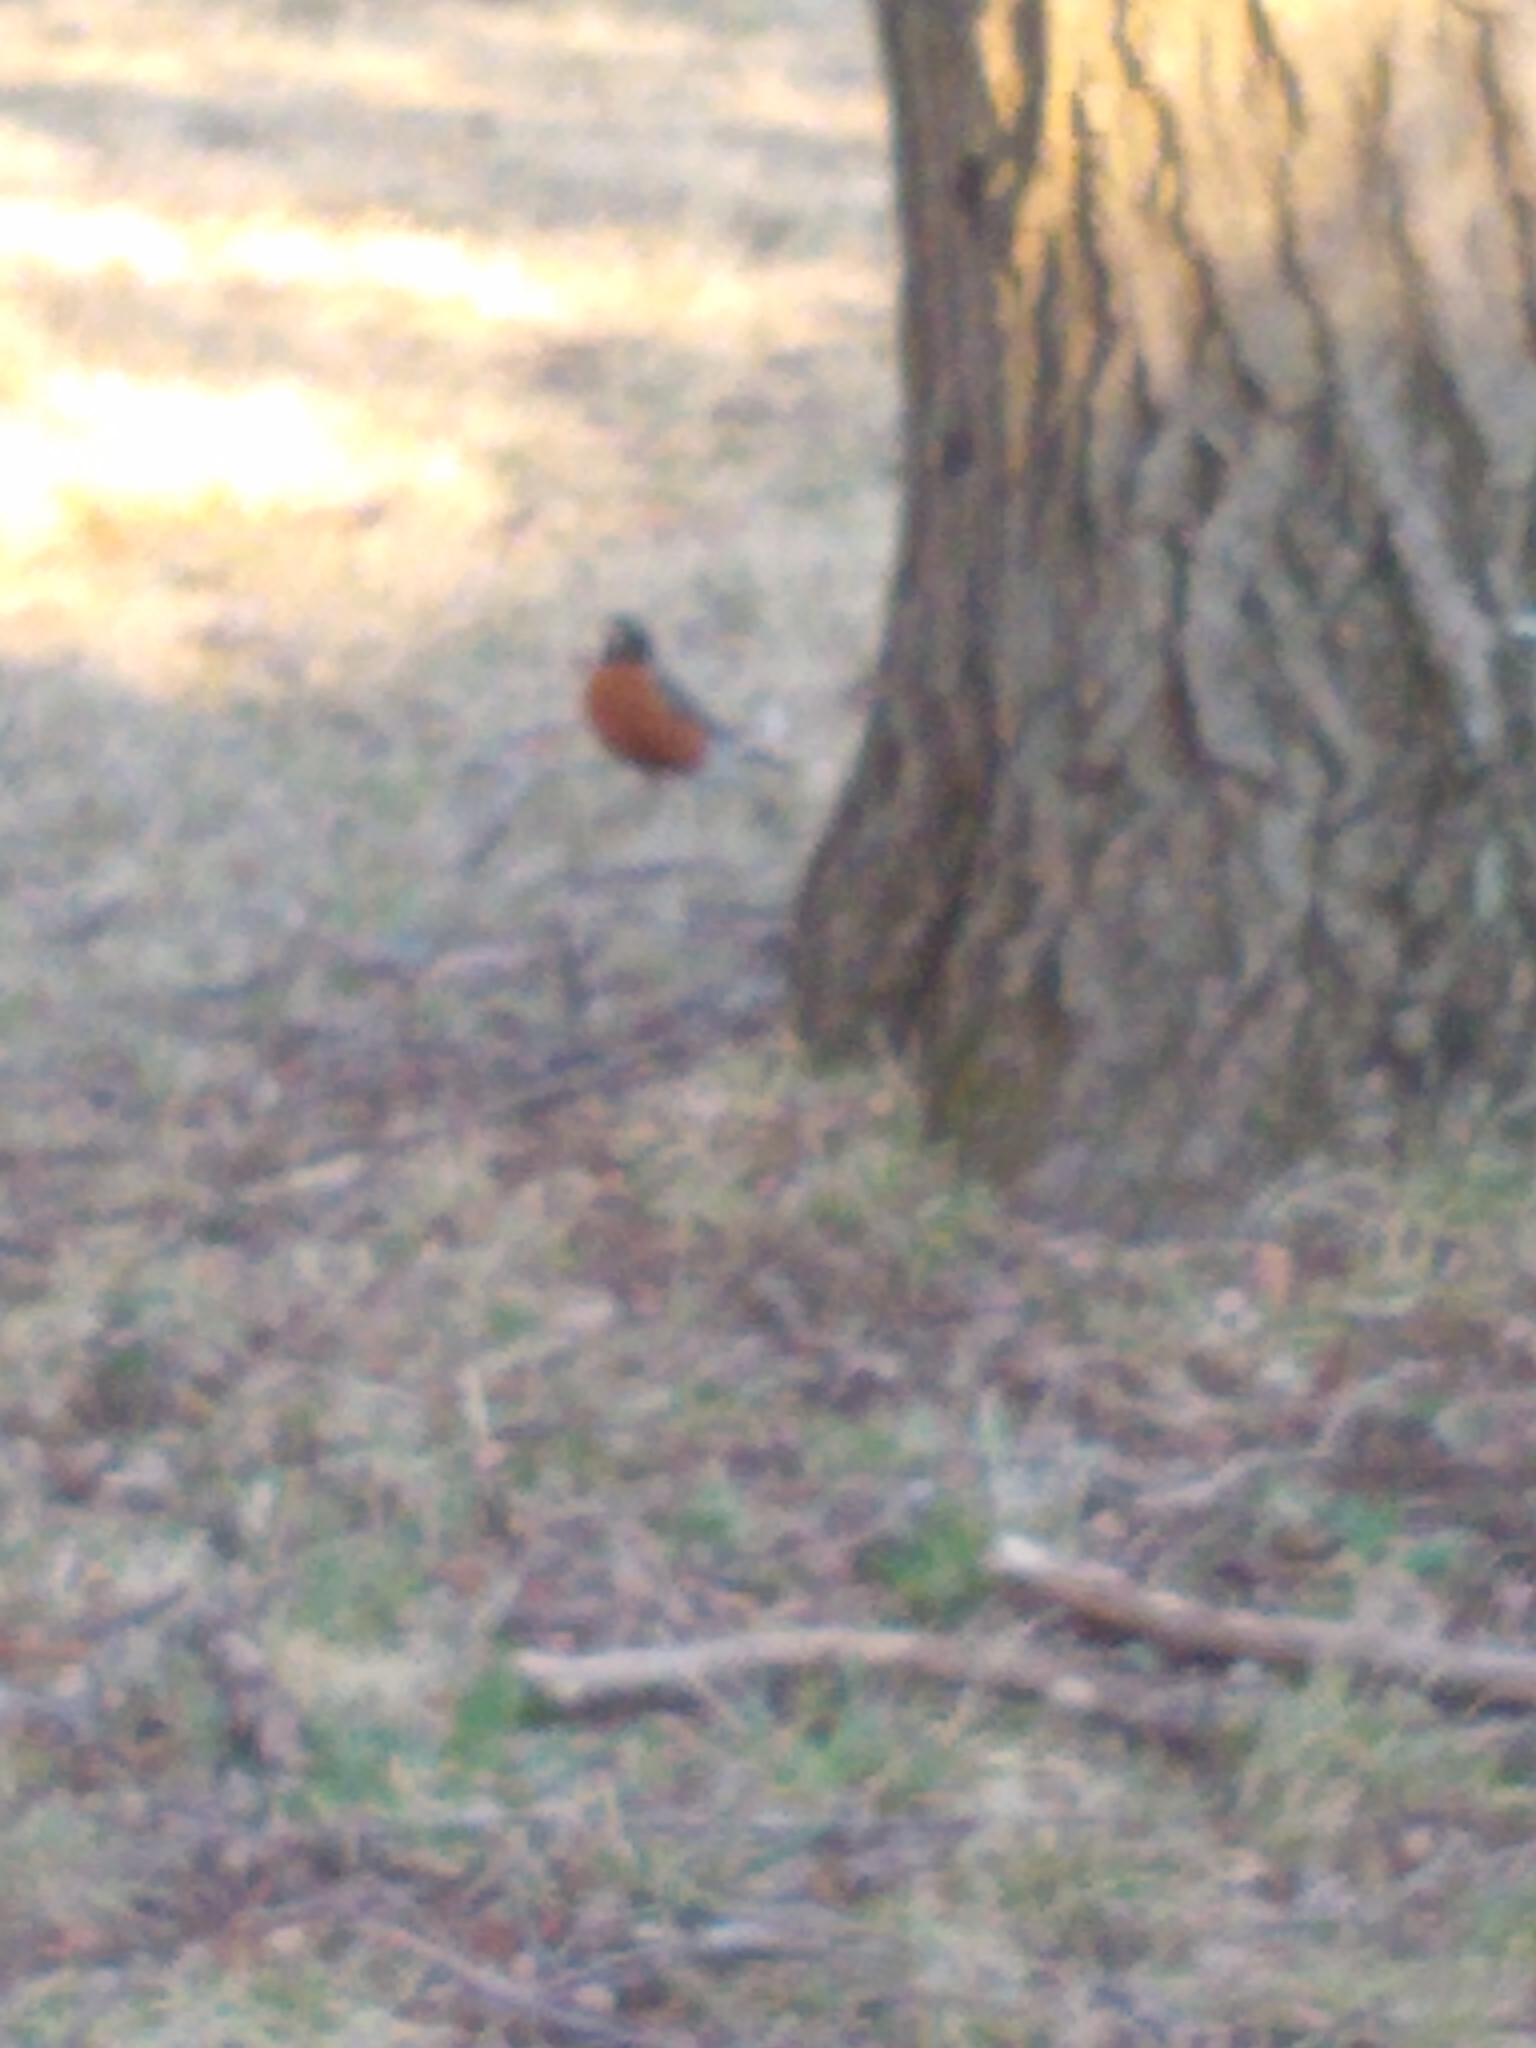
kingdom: Animalia
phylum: Chordata
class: Aves
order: Passeriformes
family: Turdidae
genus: Turdus
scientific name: Turdus migratorius
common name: American robin
